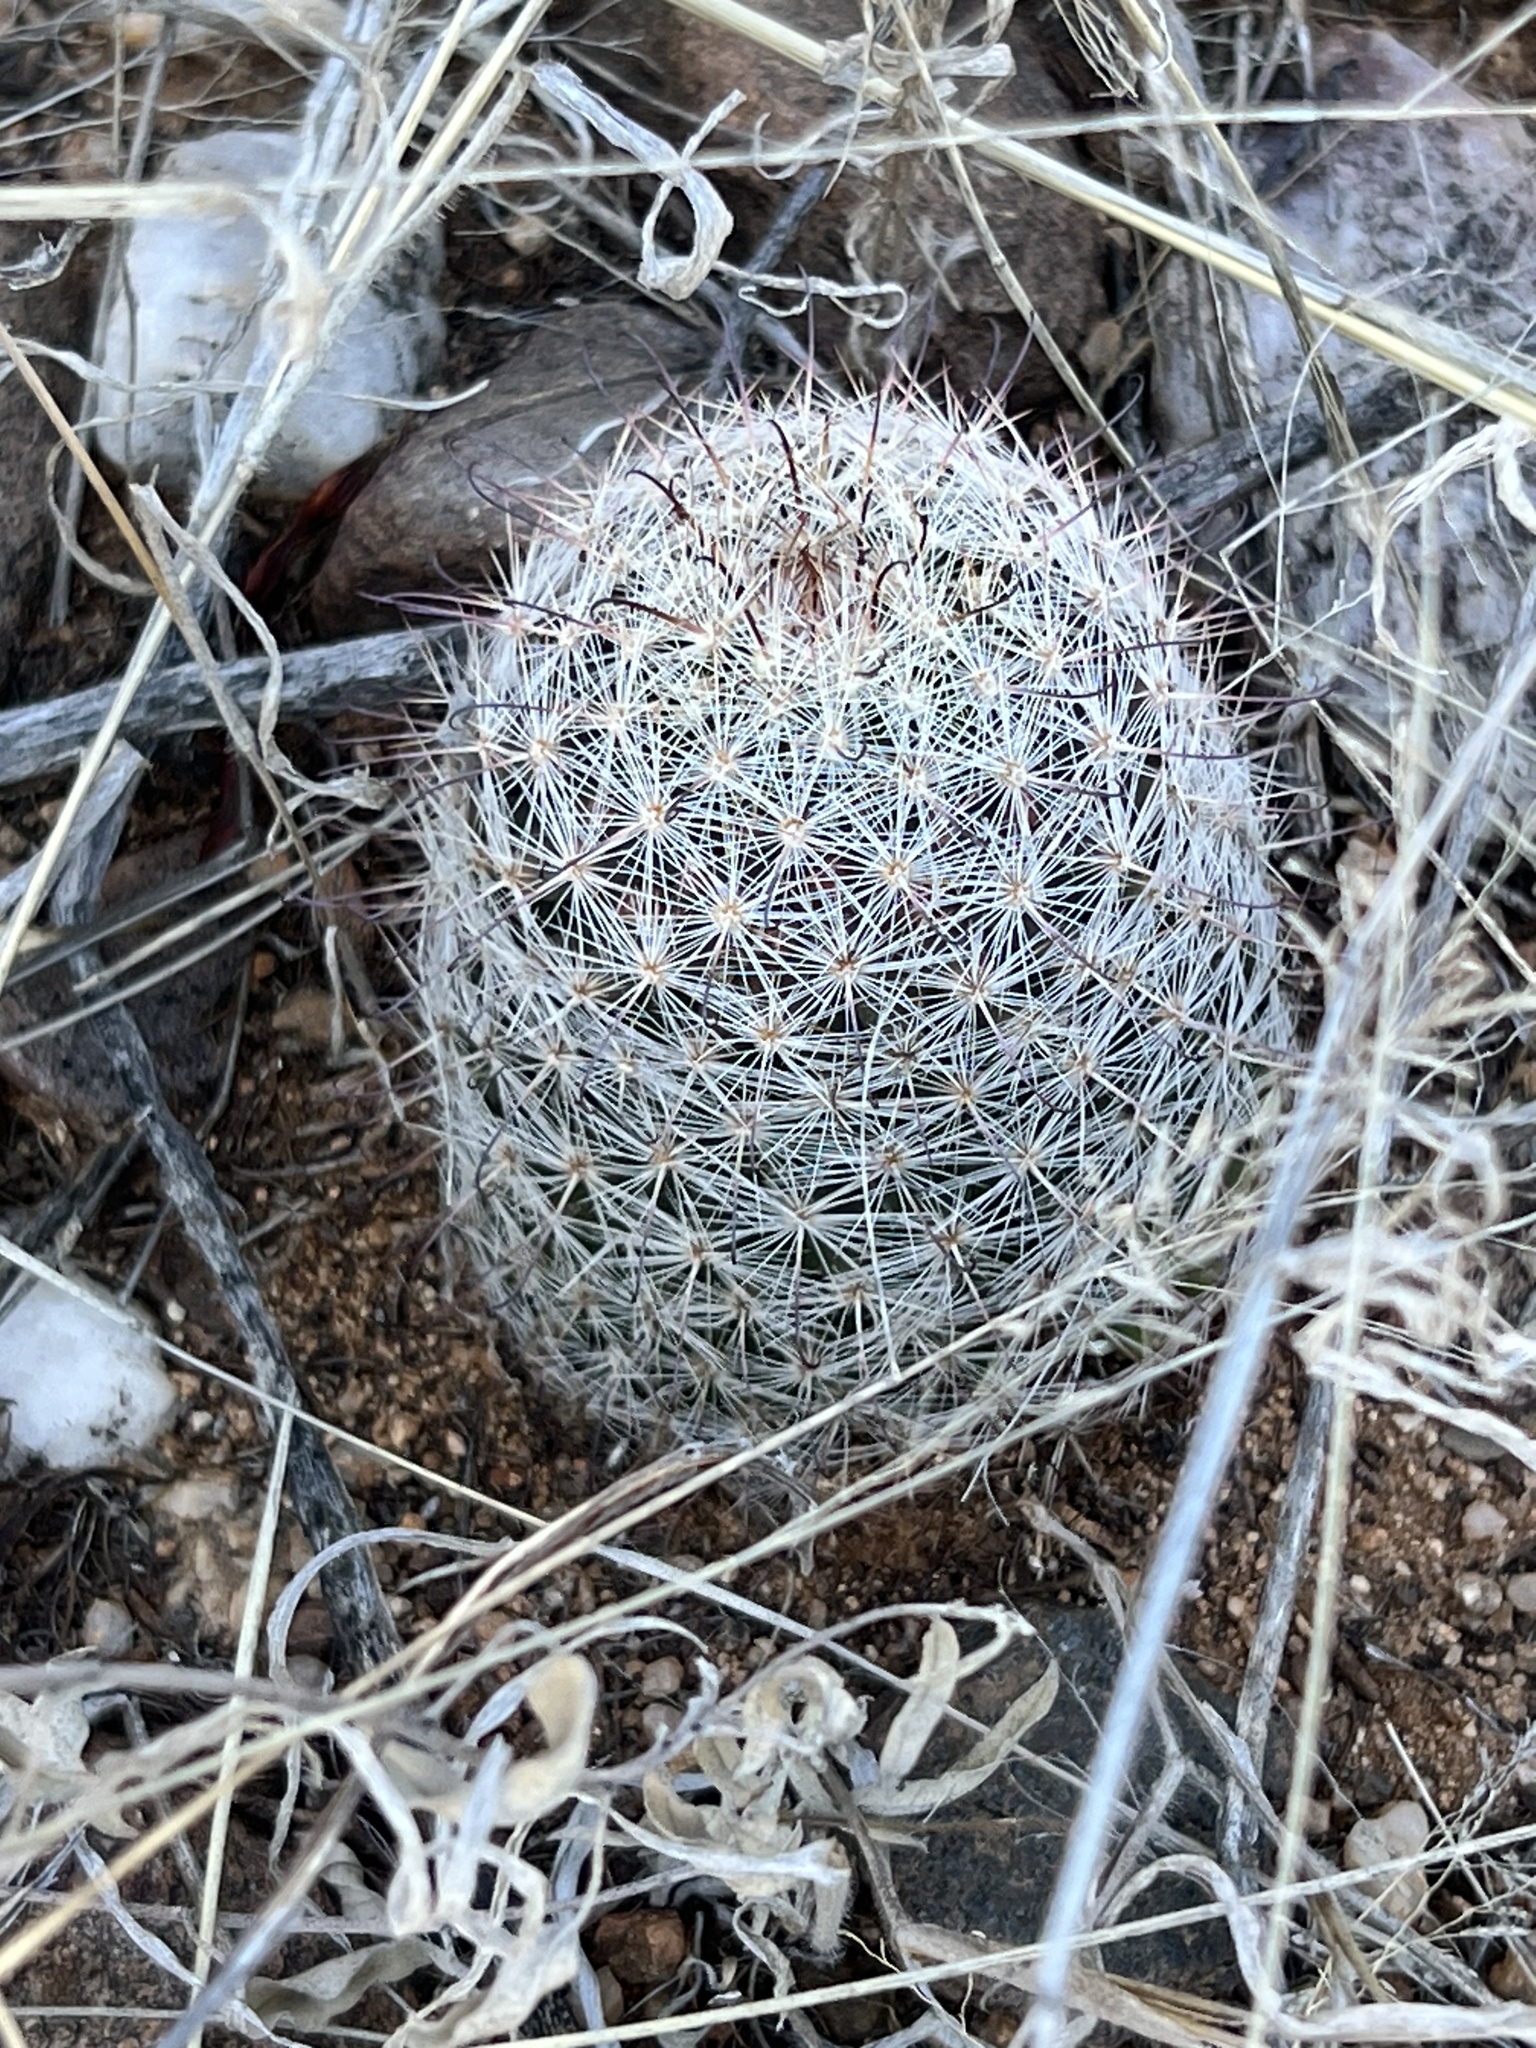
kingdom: Plantae
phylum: Tracheophyta
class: Magnoliopsida
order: Caryophyllales
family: Cactaceae
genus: Cochemiea
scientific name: Cochemiea grahamii
